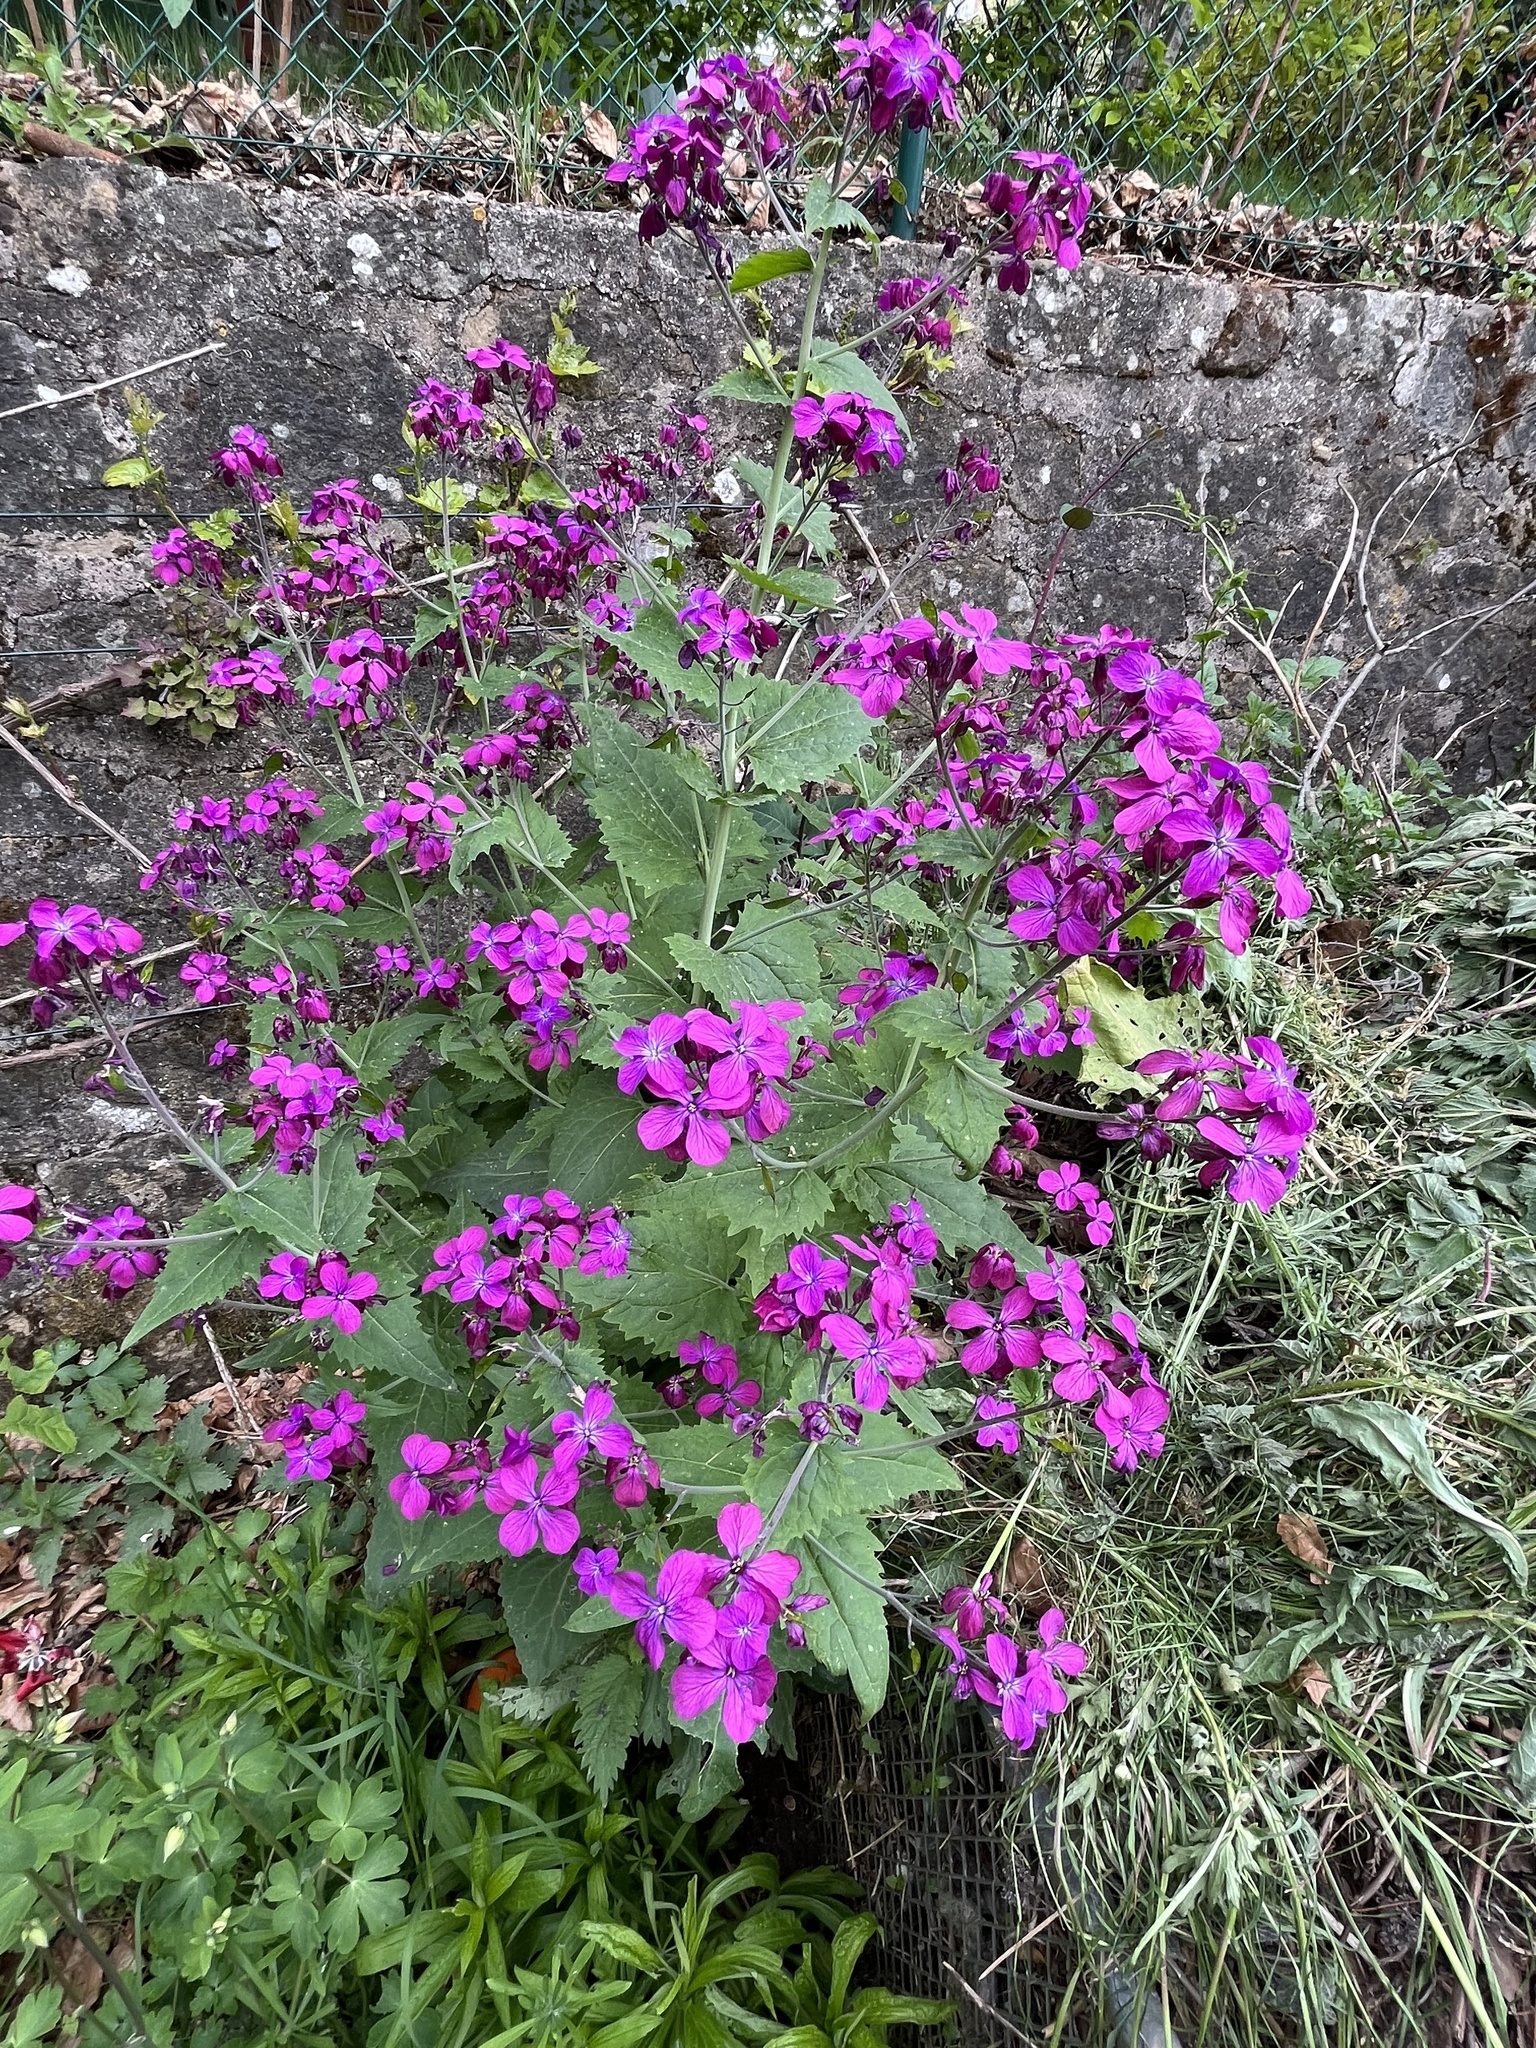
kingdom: Plantae
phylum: Tracheophyta
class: Magnoliopsida
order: Brassicales
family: Brassicaceae
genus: Lunaria
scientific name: Lunaria annua
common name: Honesty
